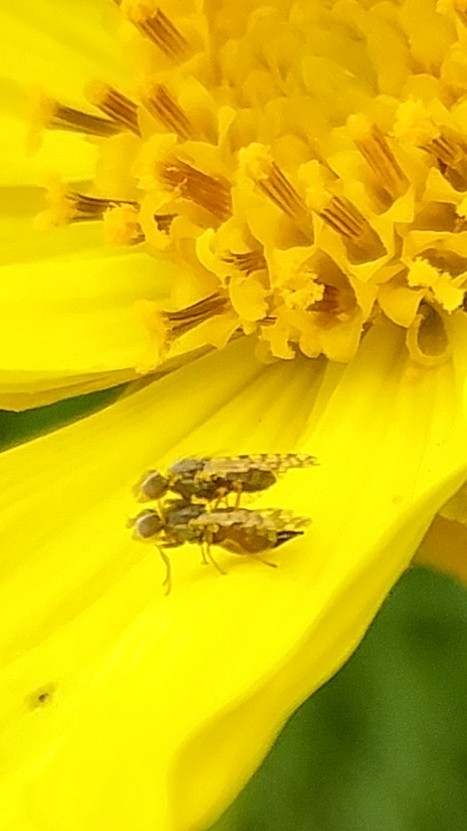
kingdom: Animalia
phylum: Arthropoda
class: Insecta
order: Diptera
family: Tephritidae
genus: Dioxyna
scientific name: Dioxyna picciola
